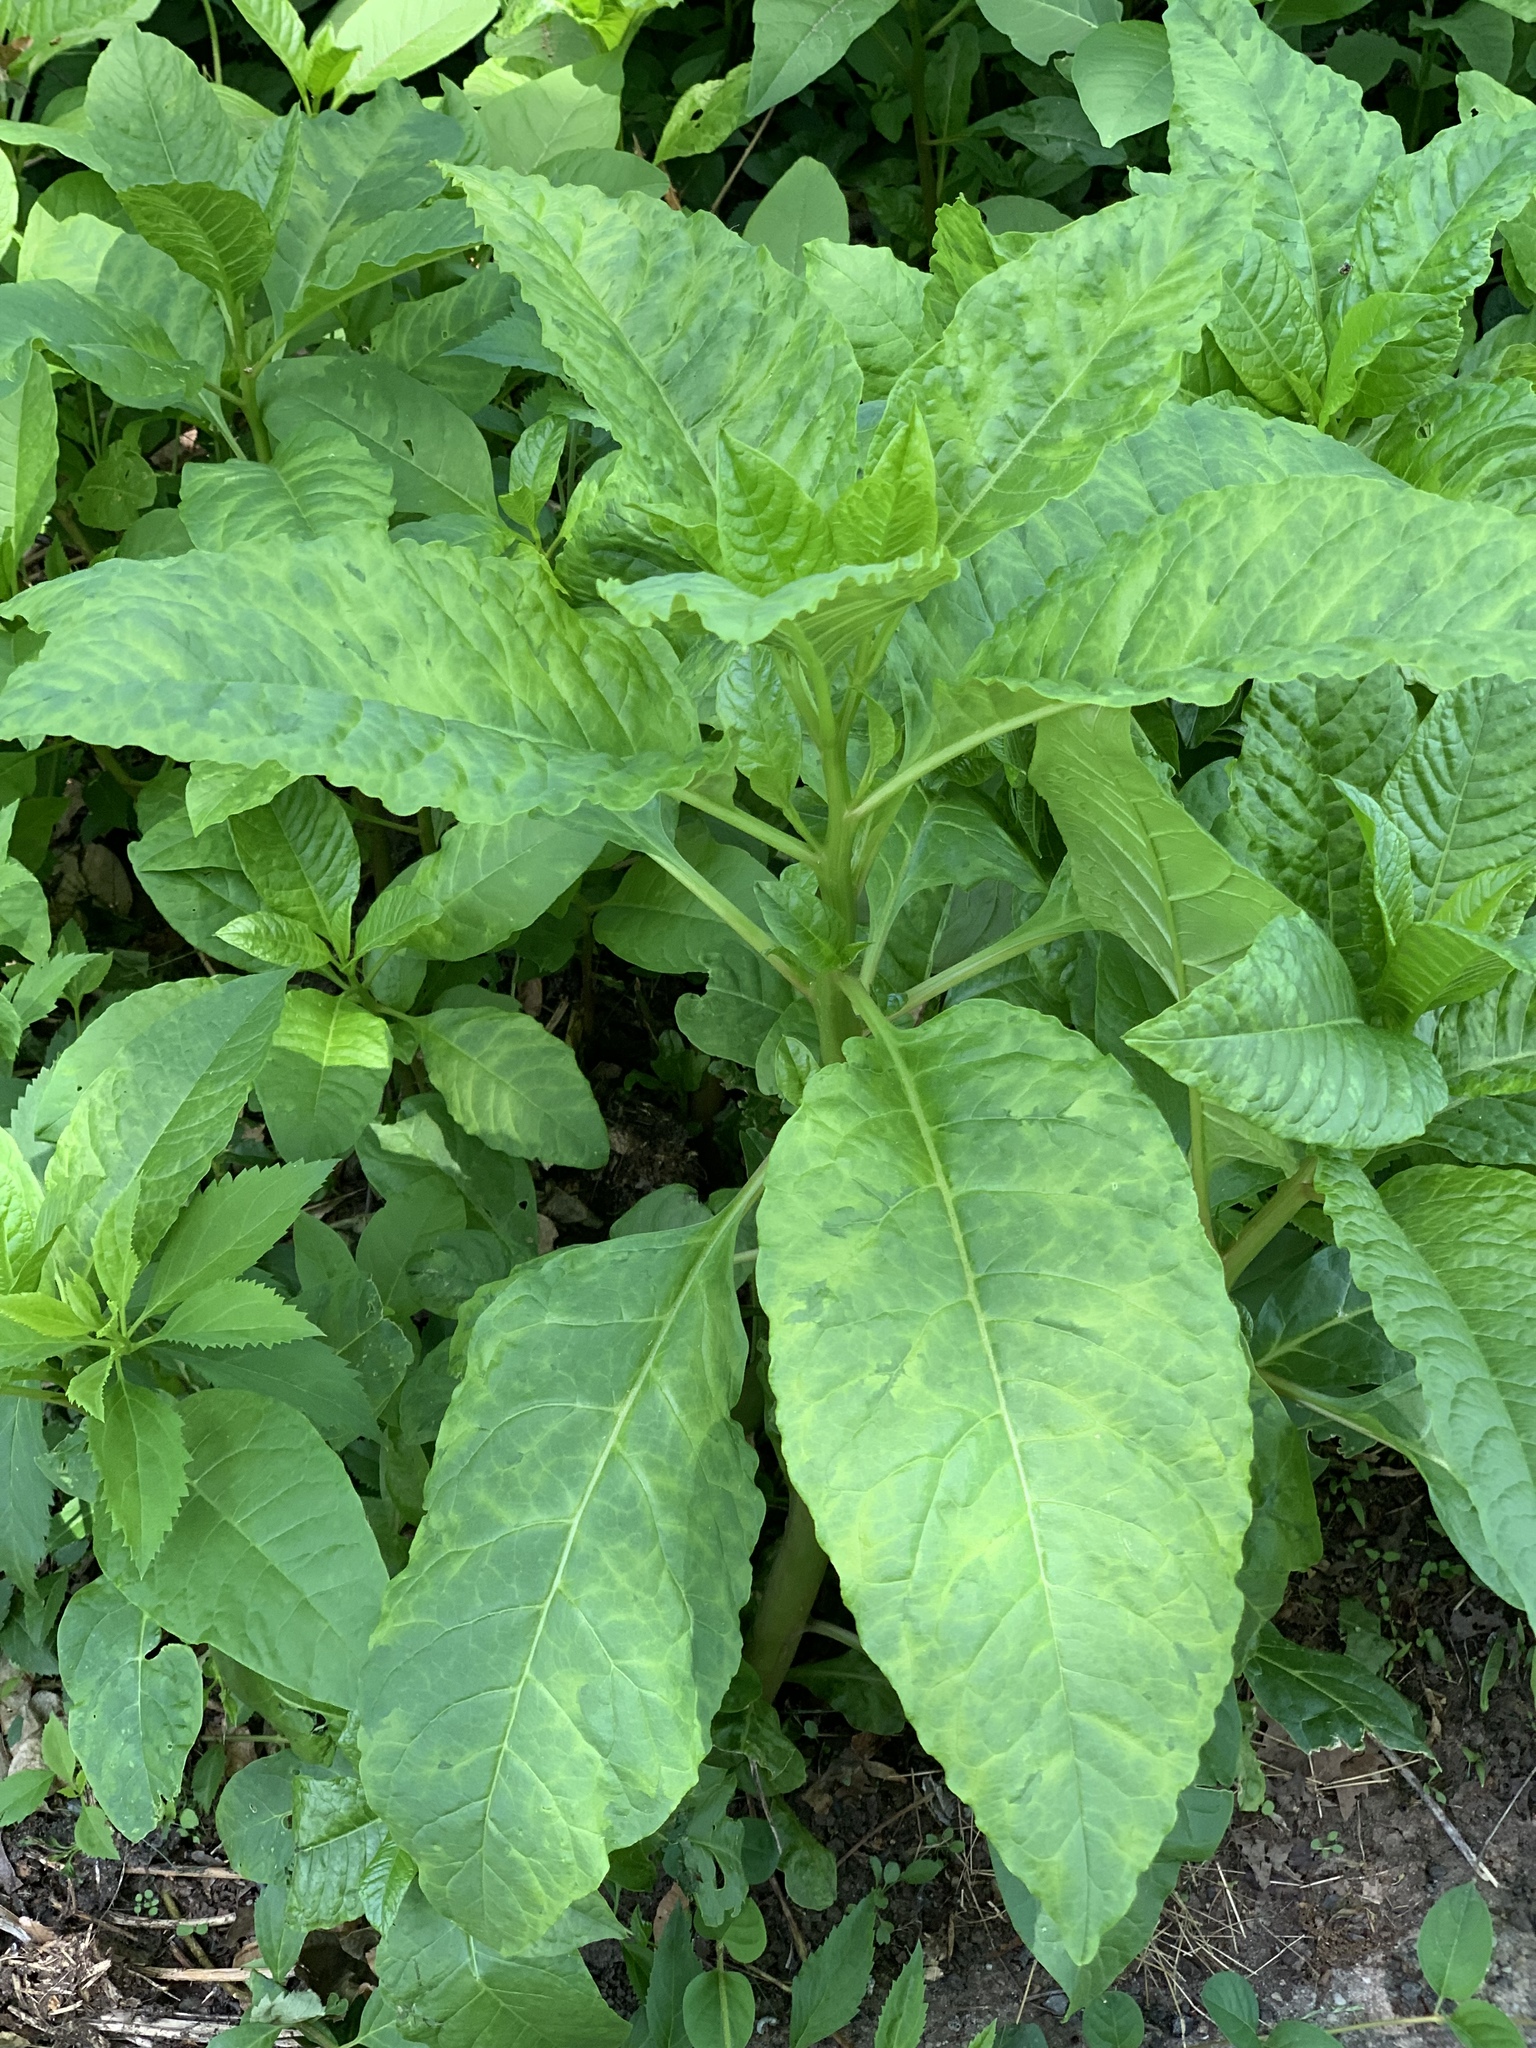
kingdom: Plantae
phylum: Tracheophyta
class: Magnoliopsida
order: Caryophyllales
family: Phytolaccaceae
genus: Phytolacca
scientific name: Phytolacca americana
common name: American pokeweed
